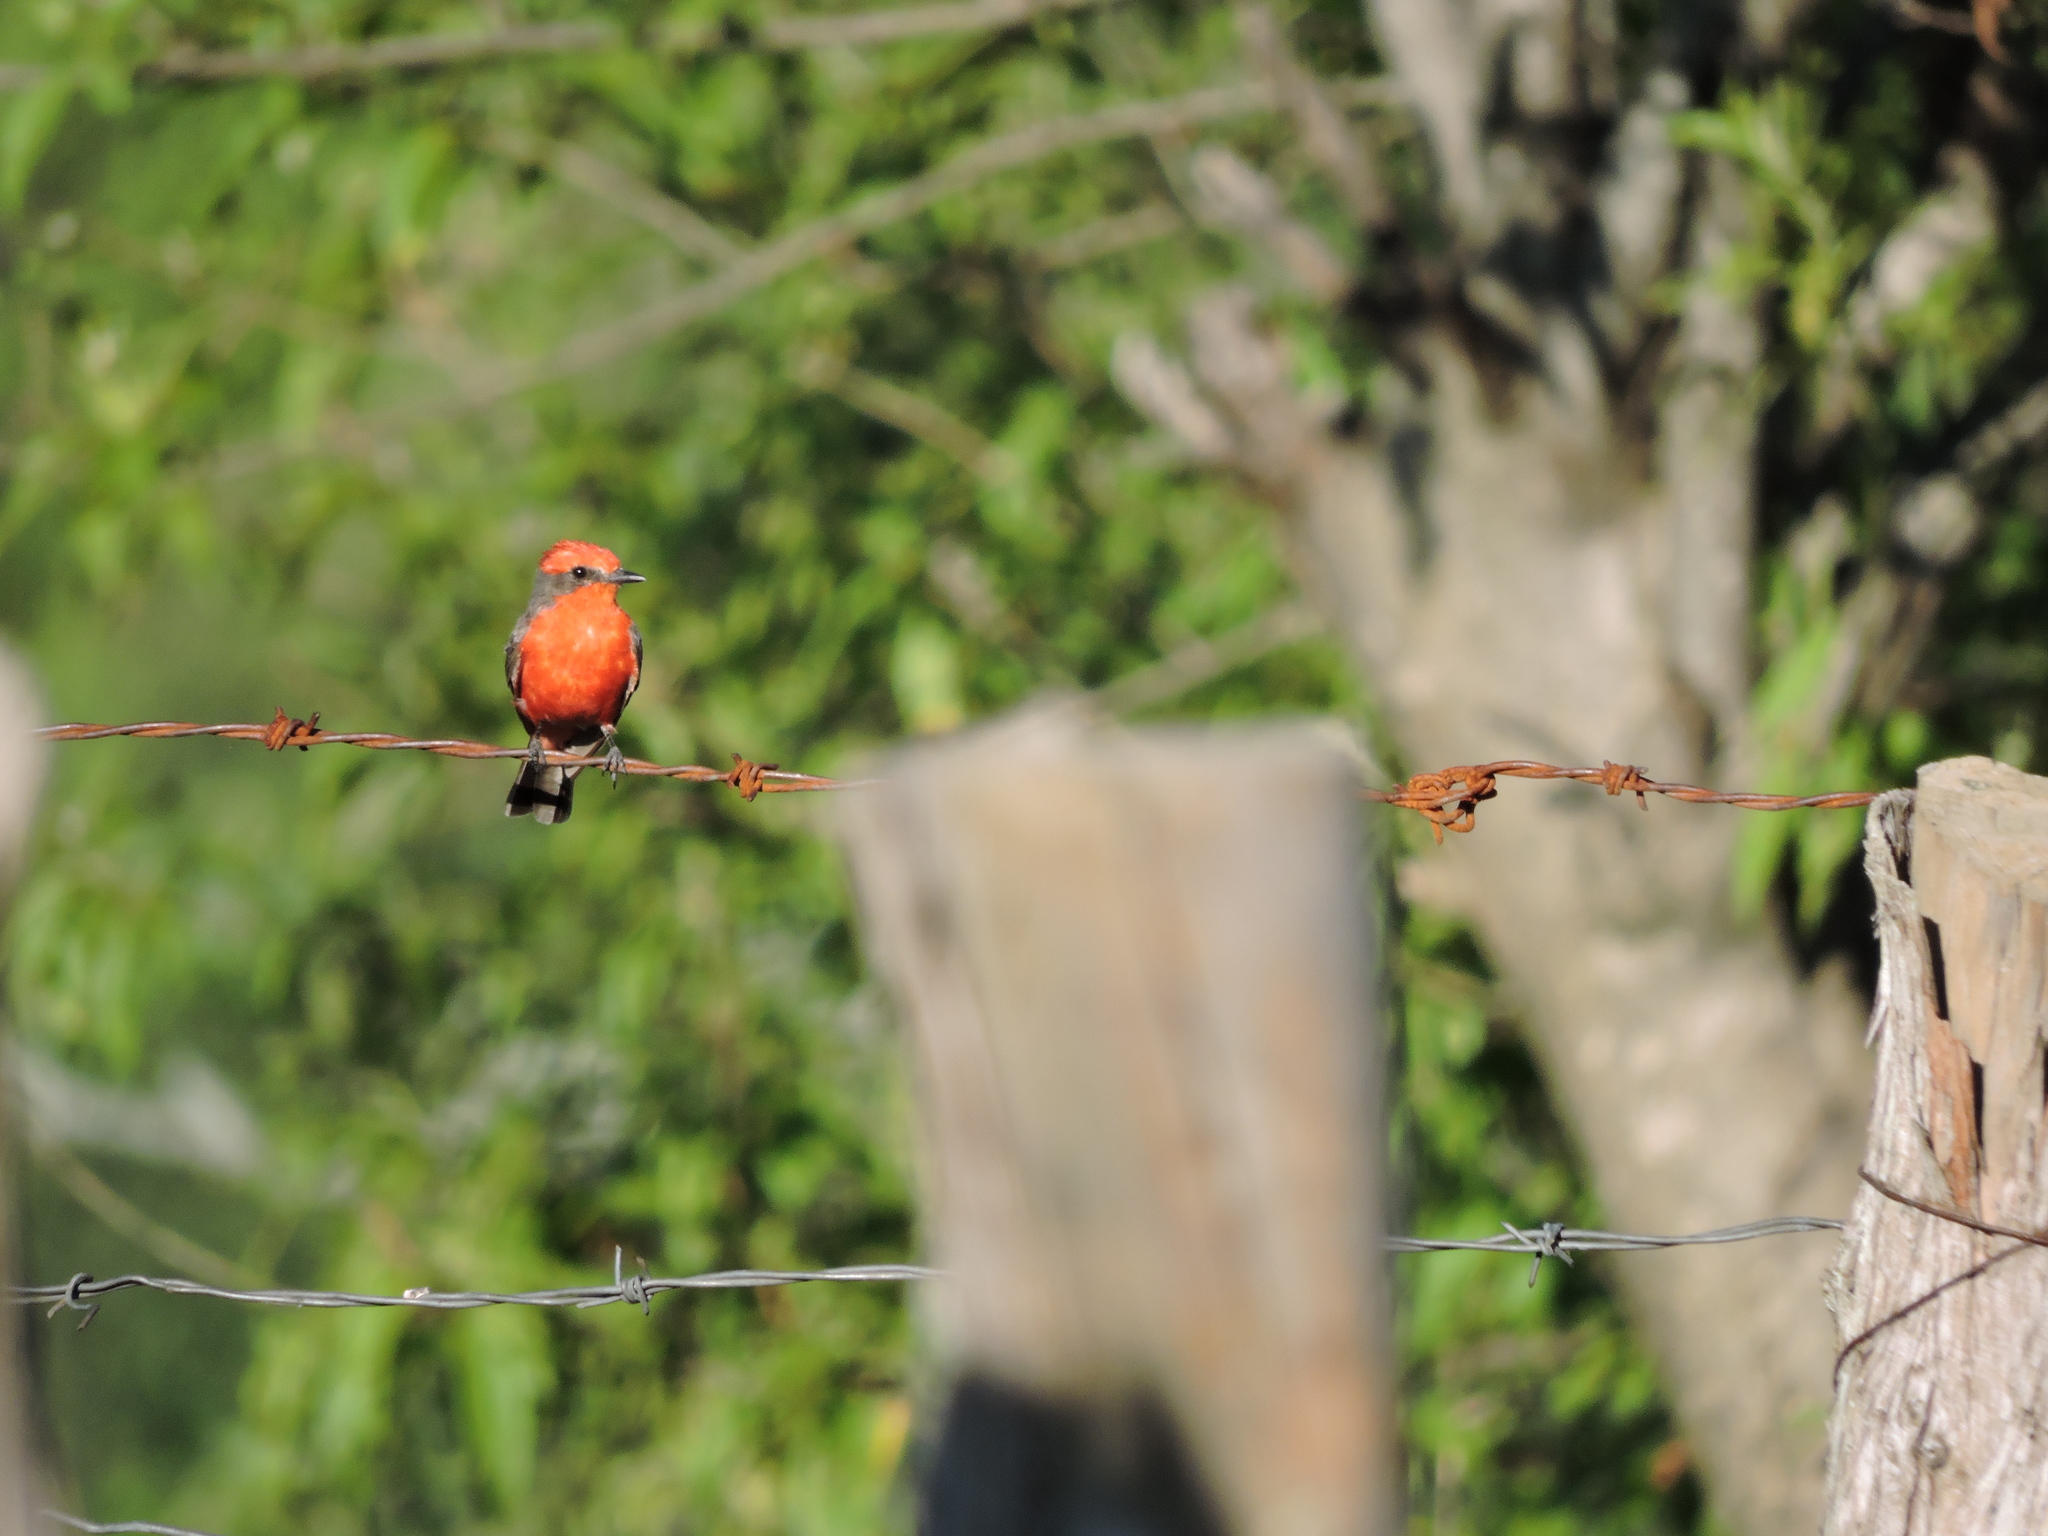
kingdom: Animalia
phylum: Chordata
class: Aves
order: Passeriformes
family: Tyrannidae
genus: Pyrocephalus
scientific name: Pyrocephalus rubinus
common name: Vermilion flycatcher
